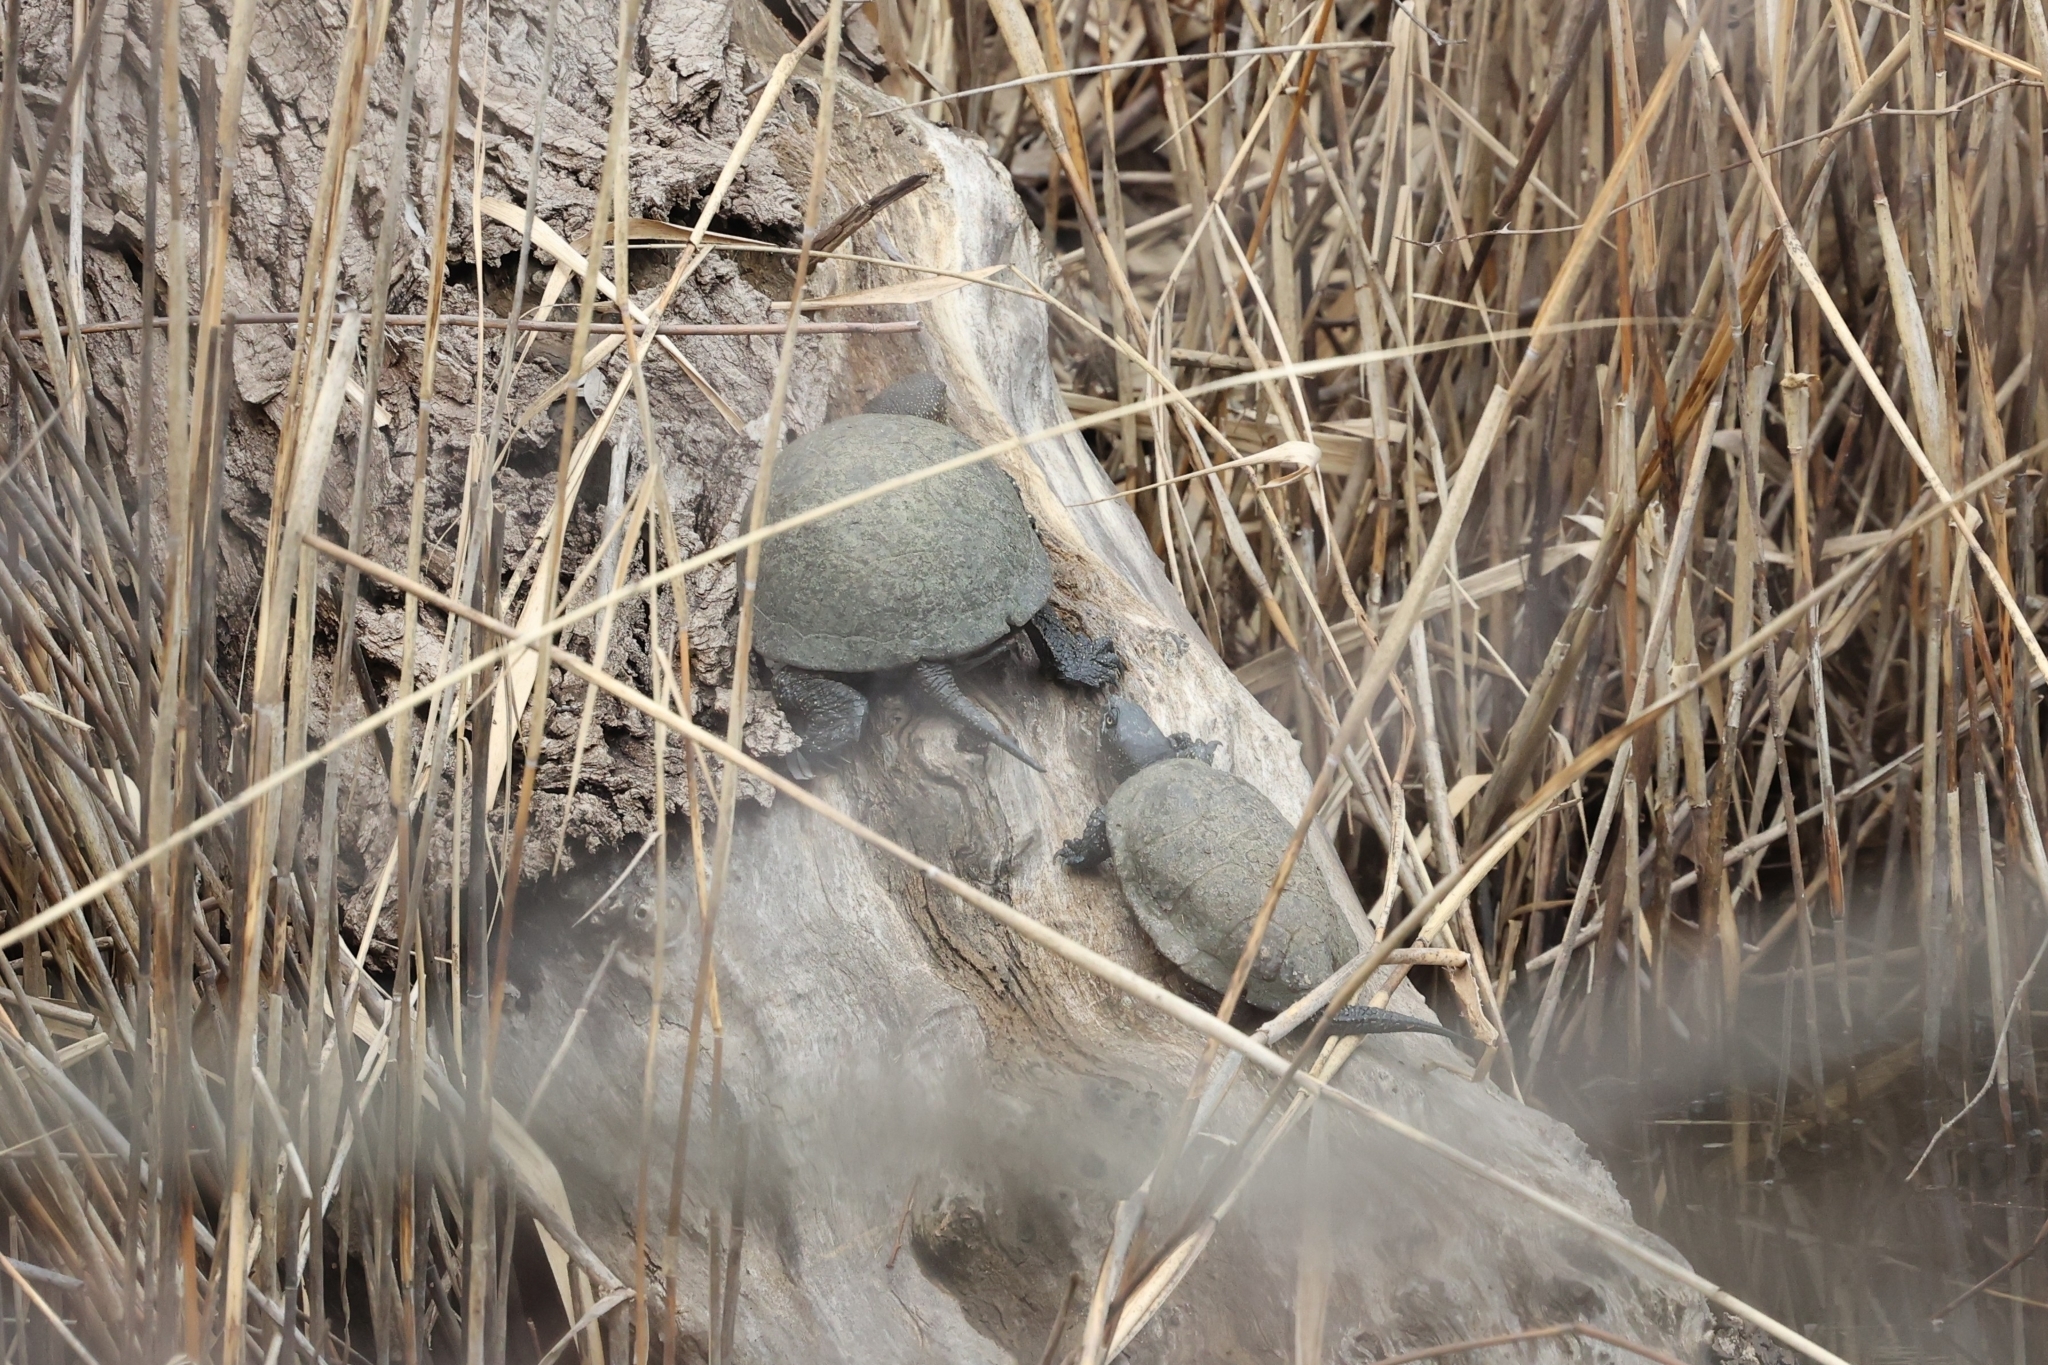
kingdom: Animalia
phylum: Chordata
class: Testudines
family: Emydidae
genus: Emys
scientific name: Emys orbicularis
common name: European pond turtle
